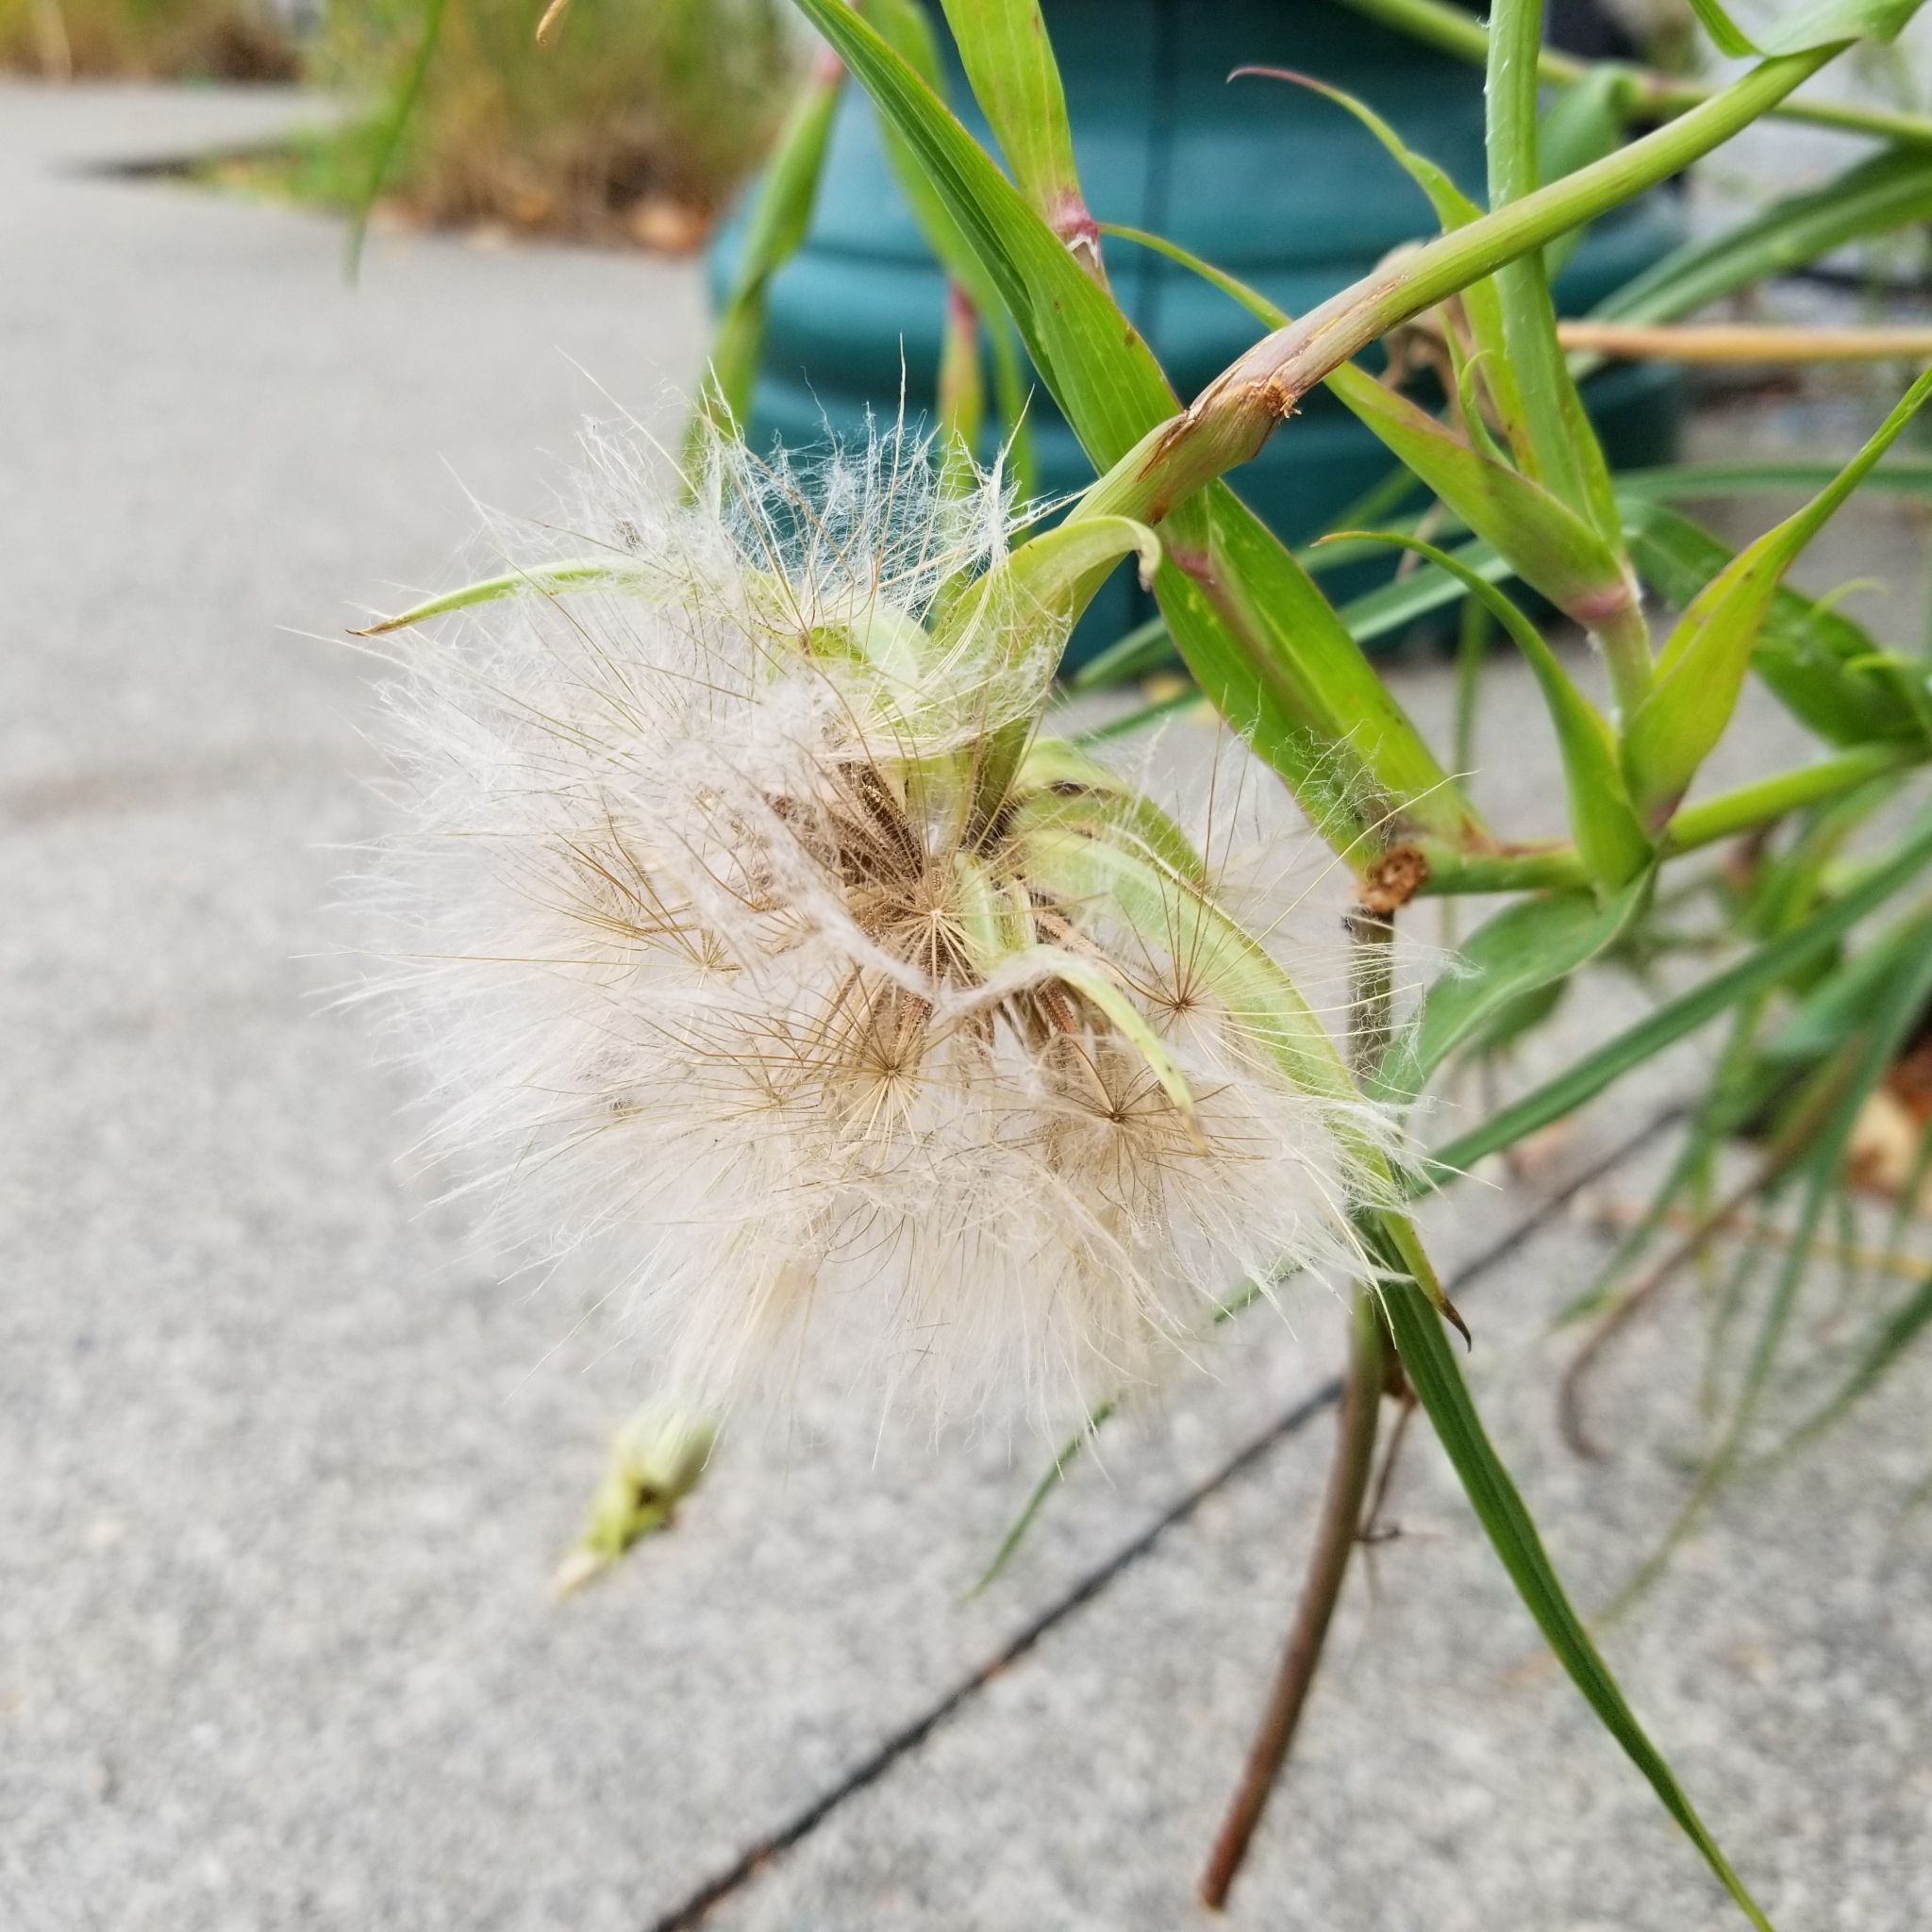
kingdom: Plantae
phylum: Tracheophyta
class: Magnoliopsida
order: Asterales
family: Asteraceae
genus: Tragopogon
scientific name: Tragopogon dubius
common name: Yellow salsify
